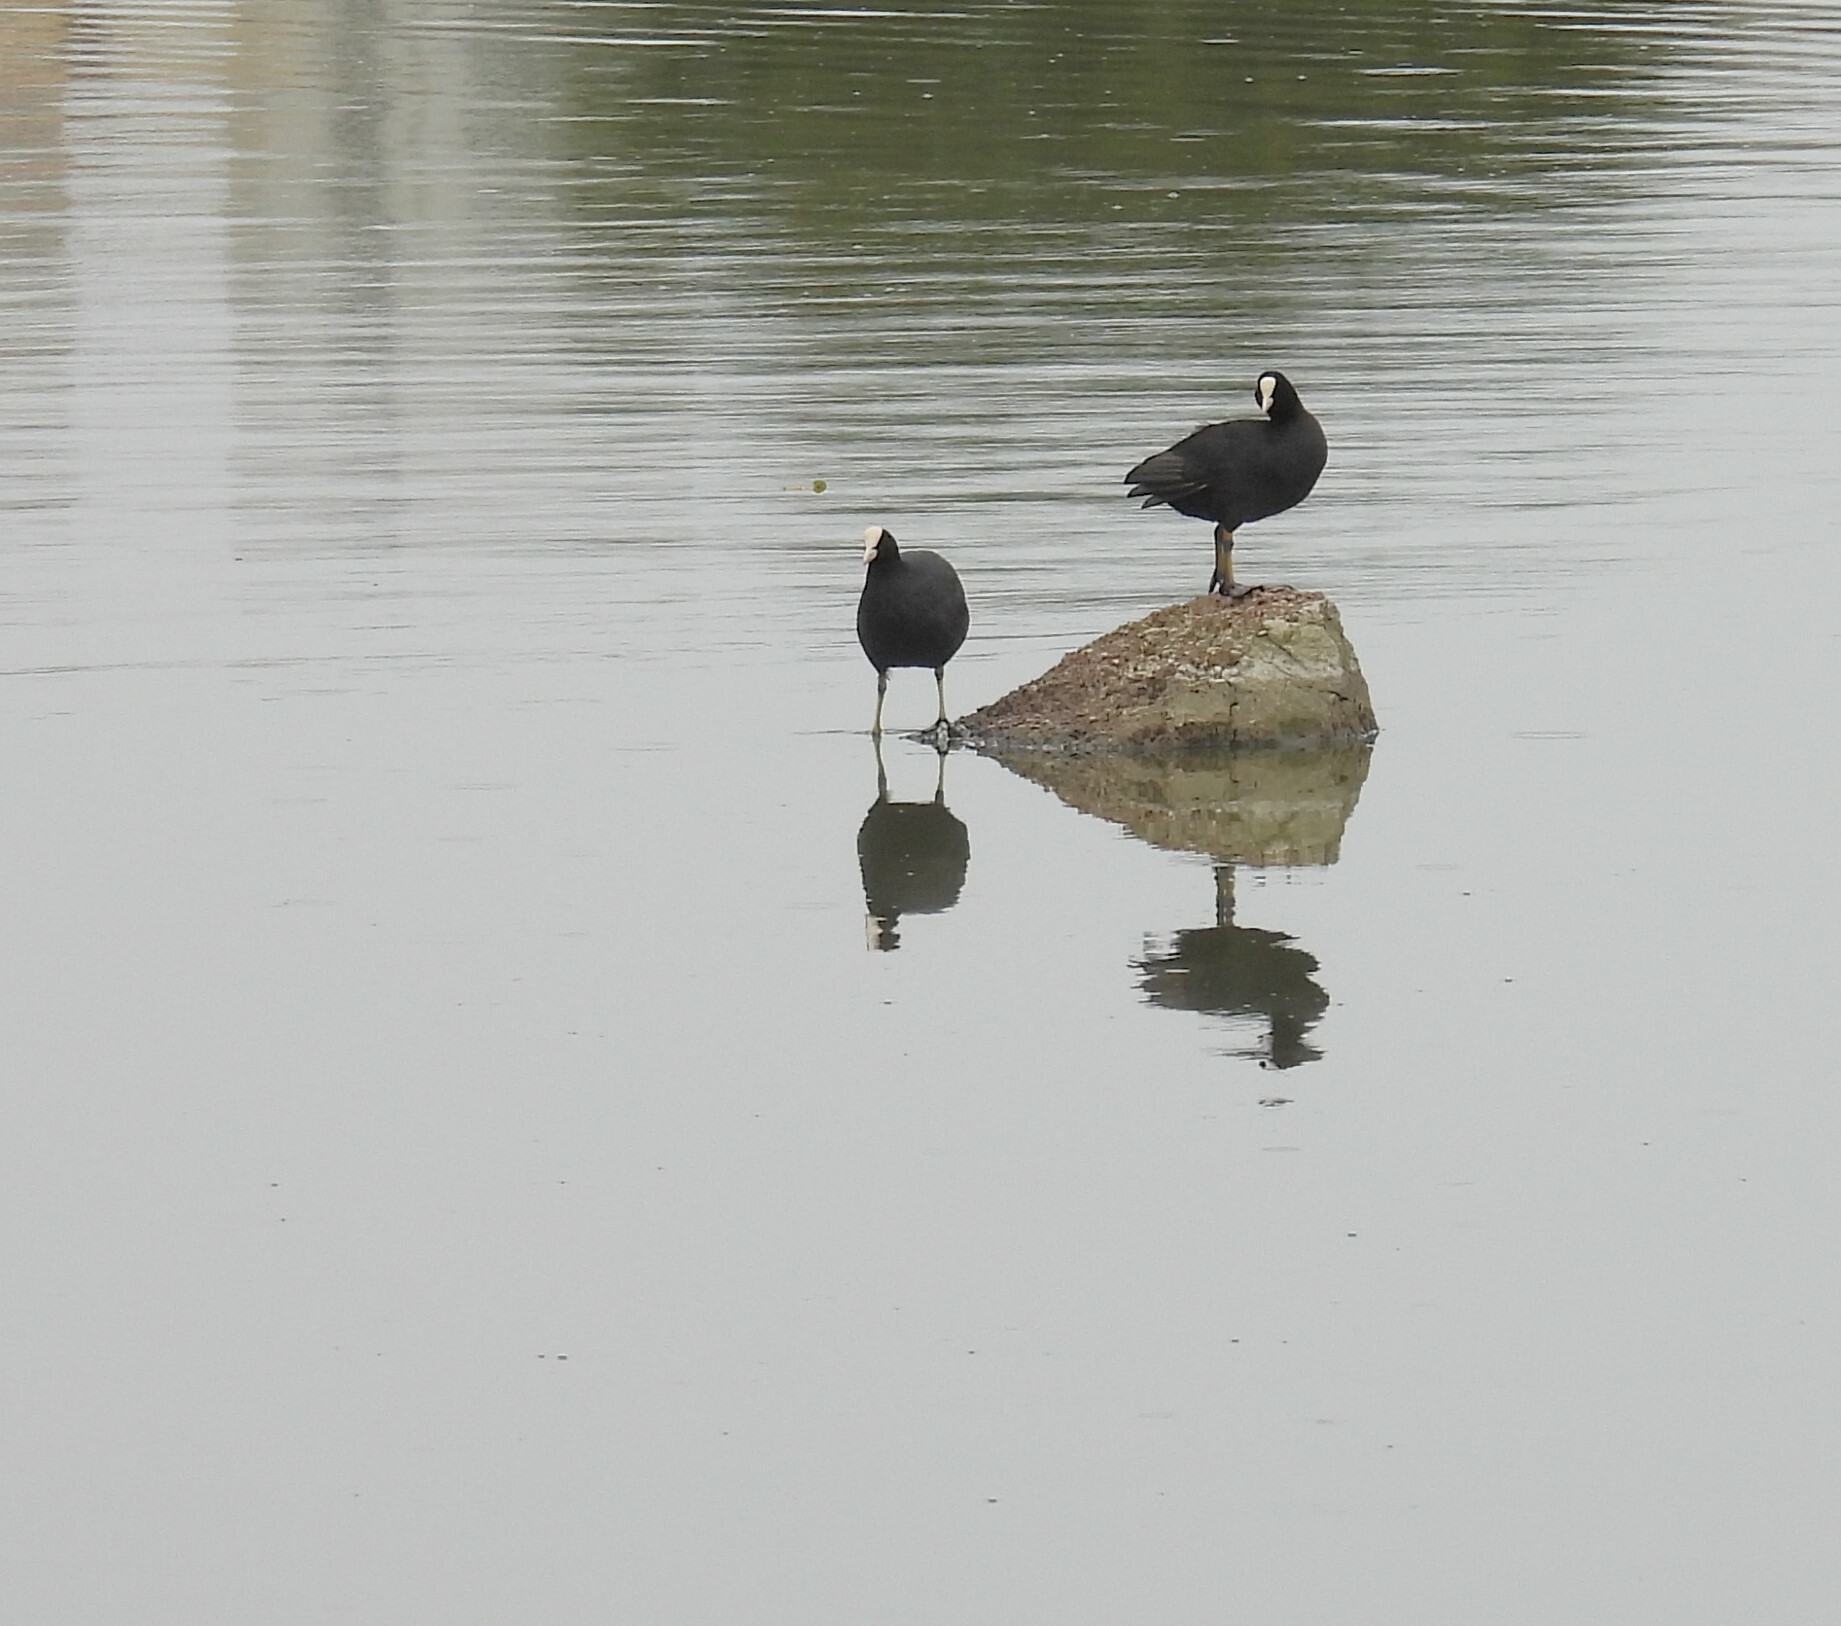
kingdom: Animalia
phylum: Chordata
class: Aves
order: Gruiformes
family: Rallidae
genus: Fulica
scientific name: Fulica atra
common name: Eurasian coot
